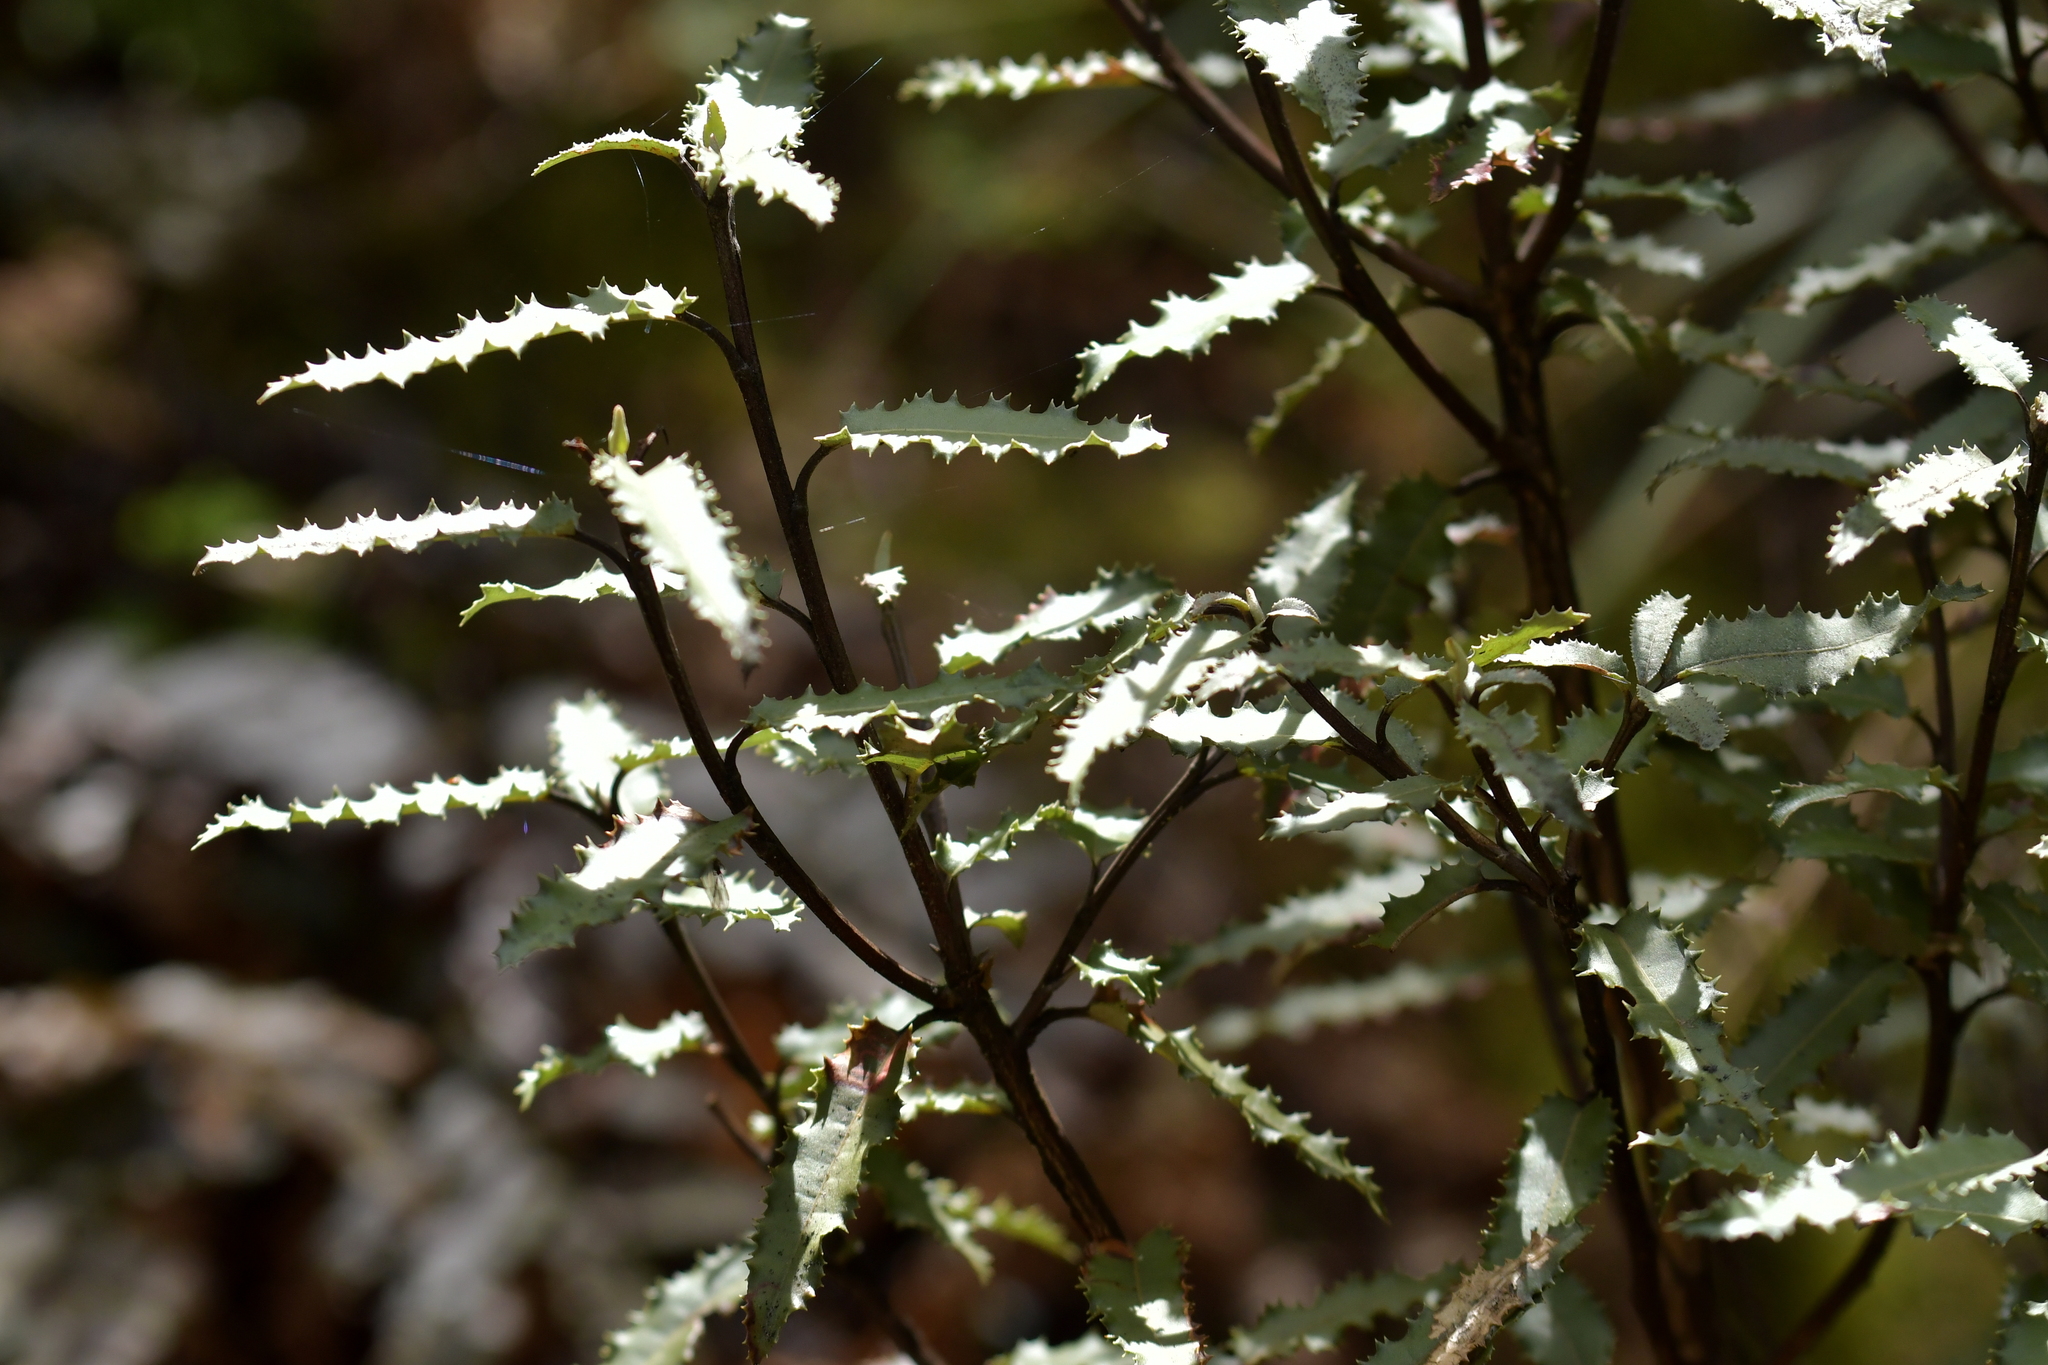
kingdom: Plantae
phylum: Tracheophyta
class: Magnoliopsida
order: Asterales
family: Asteraceae
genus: Olearia
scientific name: Olearia ilicifolia
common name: Maori-holly
